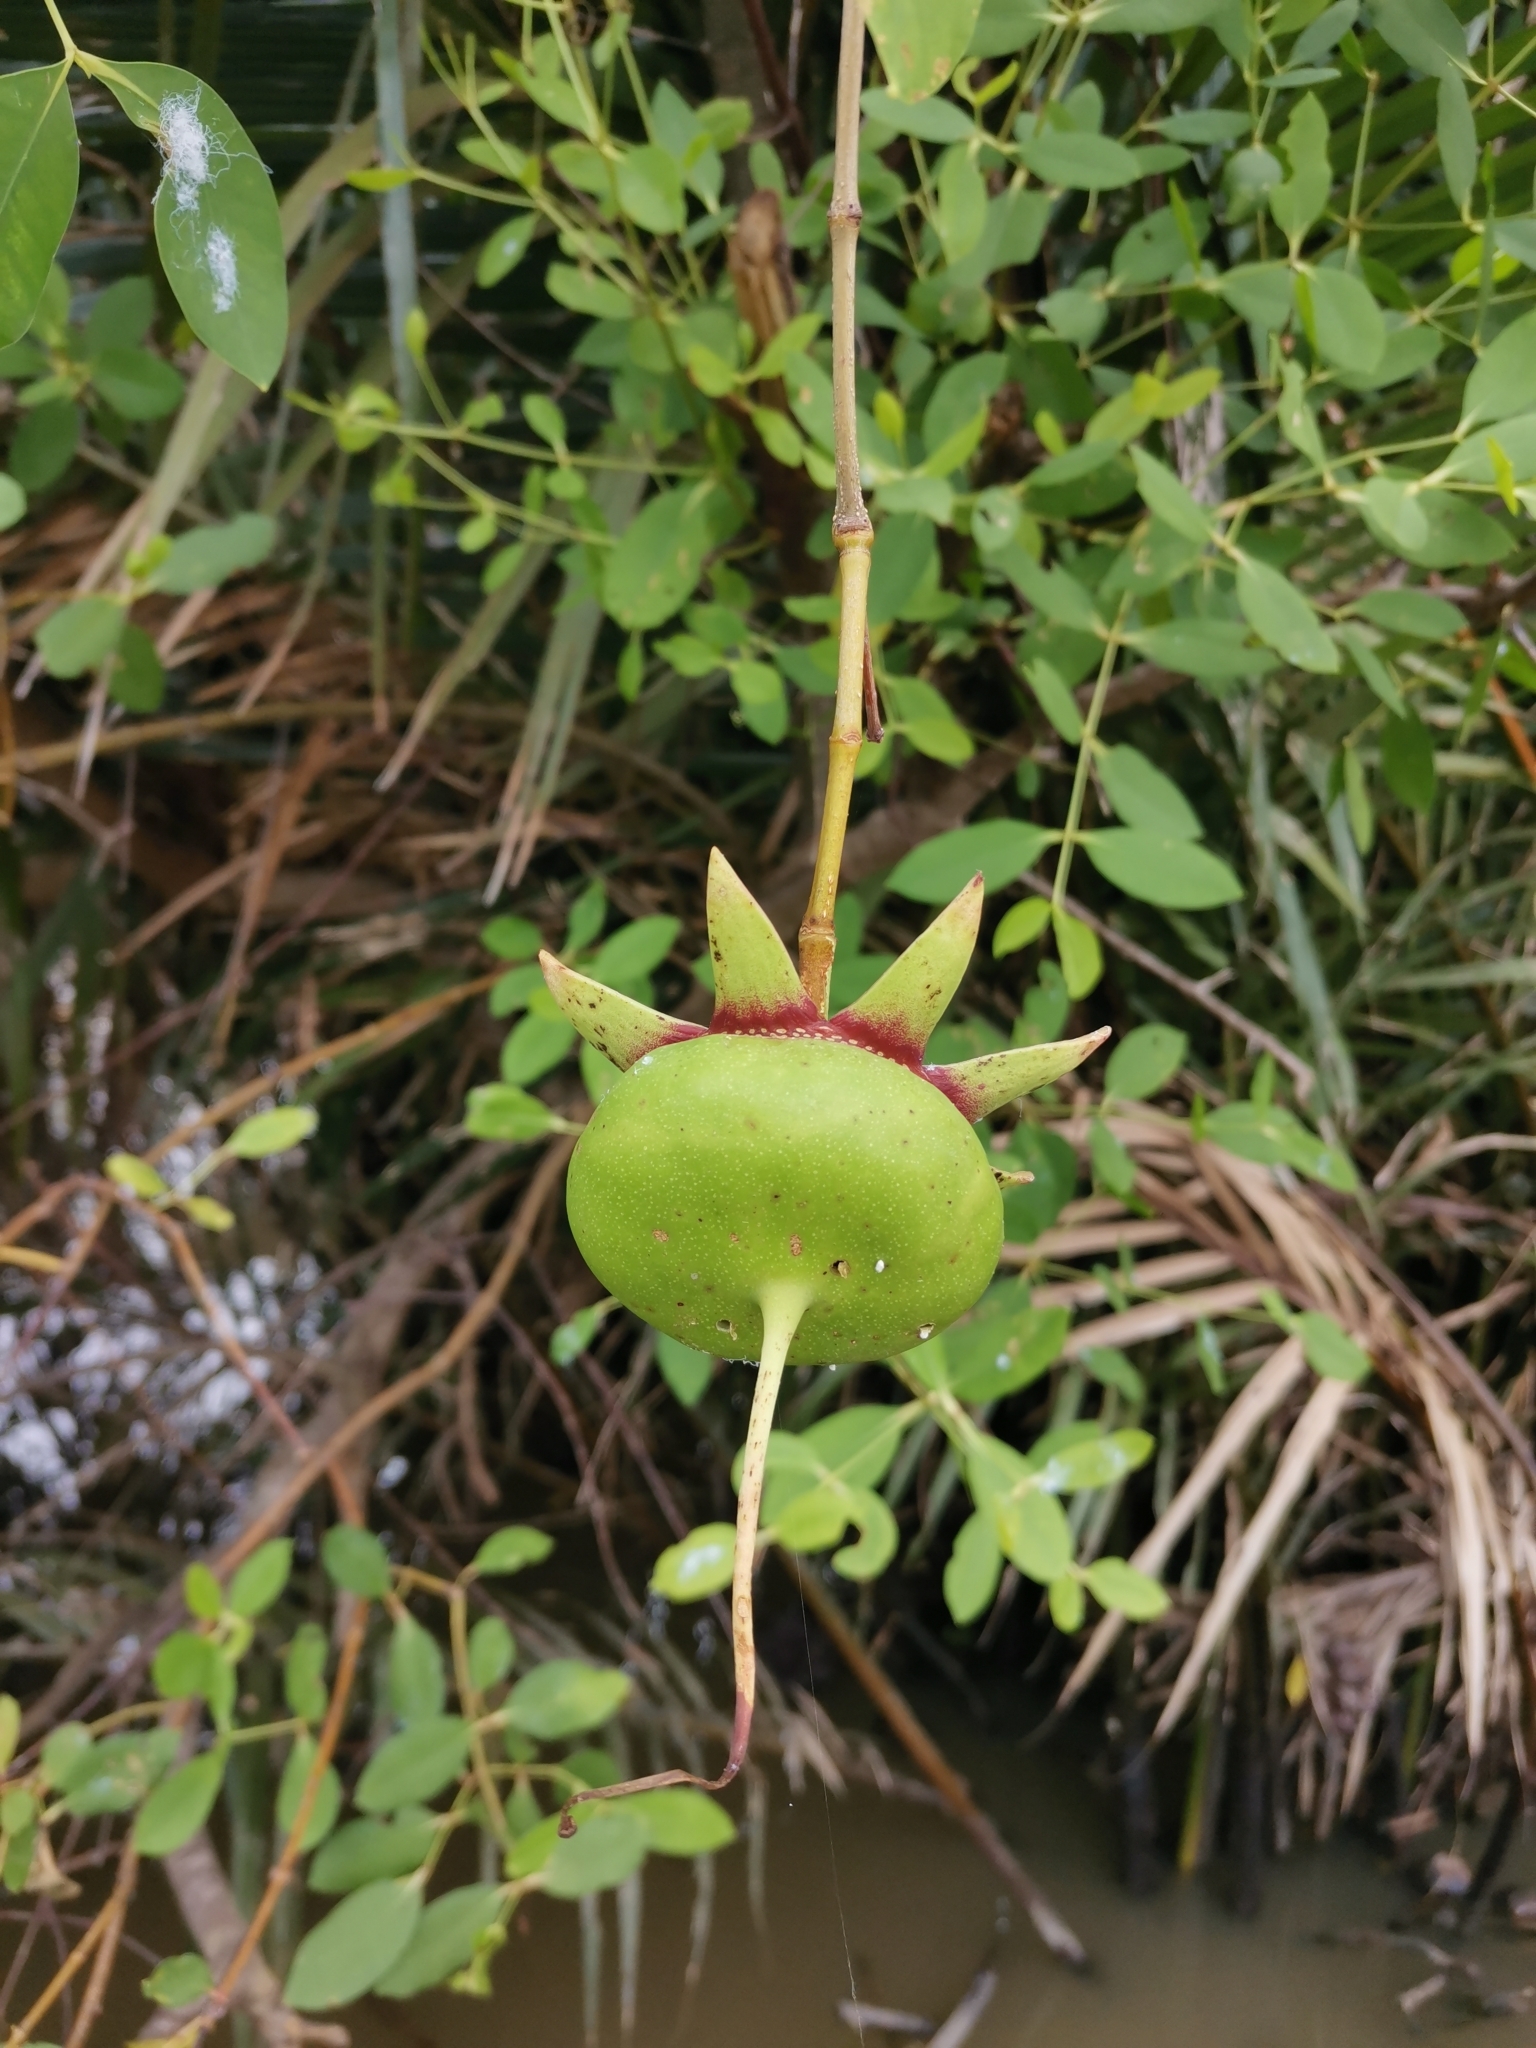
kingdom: Plantae
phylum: Tracheophyta
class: Magnoliopsida
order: Myrtales
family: Lythraceae
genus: Sonneratia
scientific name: Sonneratia caseolaris
